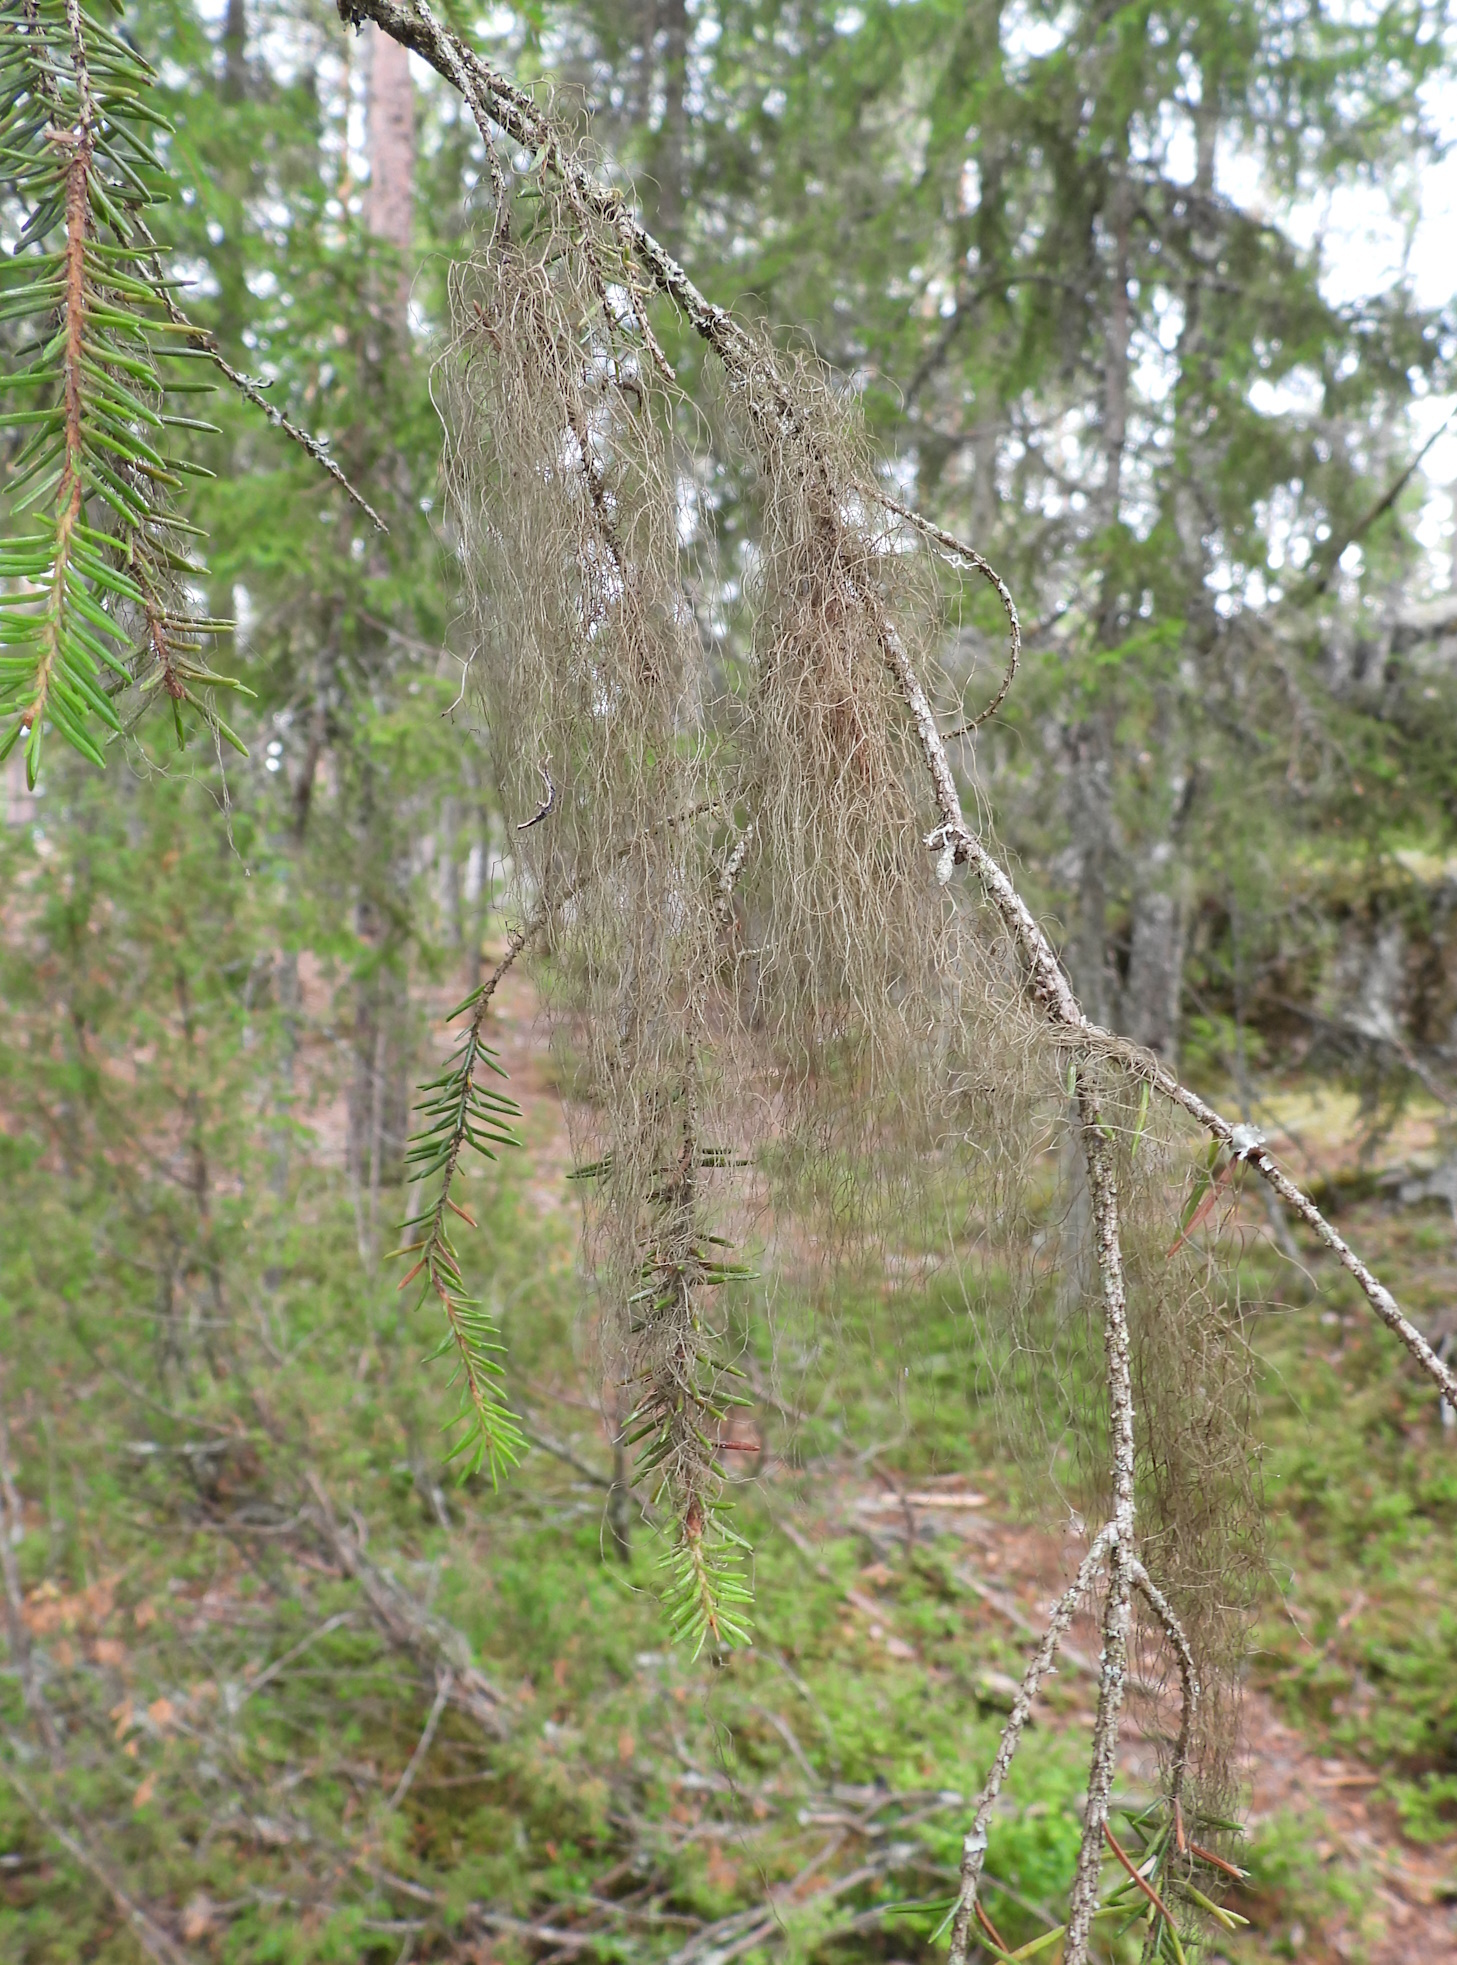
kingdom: Fungi
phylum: Ascomycota
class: Lecanoromycetes
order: Lecanorales
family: Parmeliaceae
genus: Bryoria
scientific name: Bryoria fuscescens
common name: Pale-footed horsehair lichen
